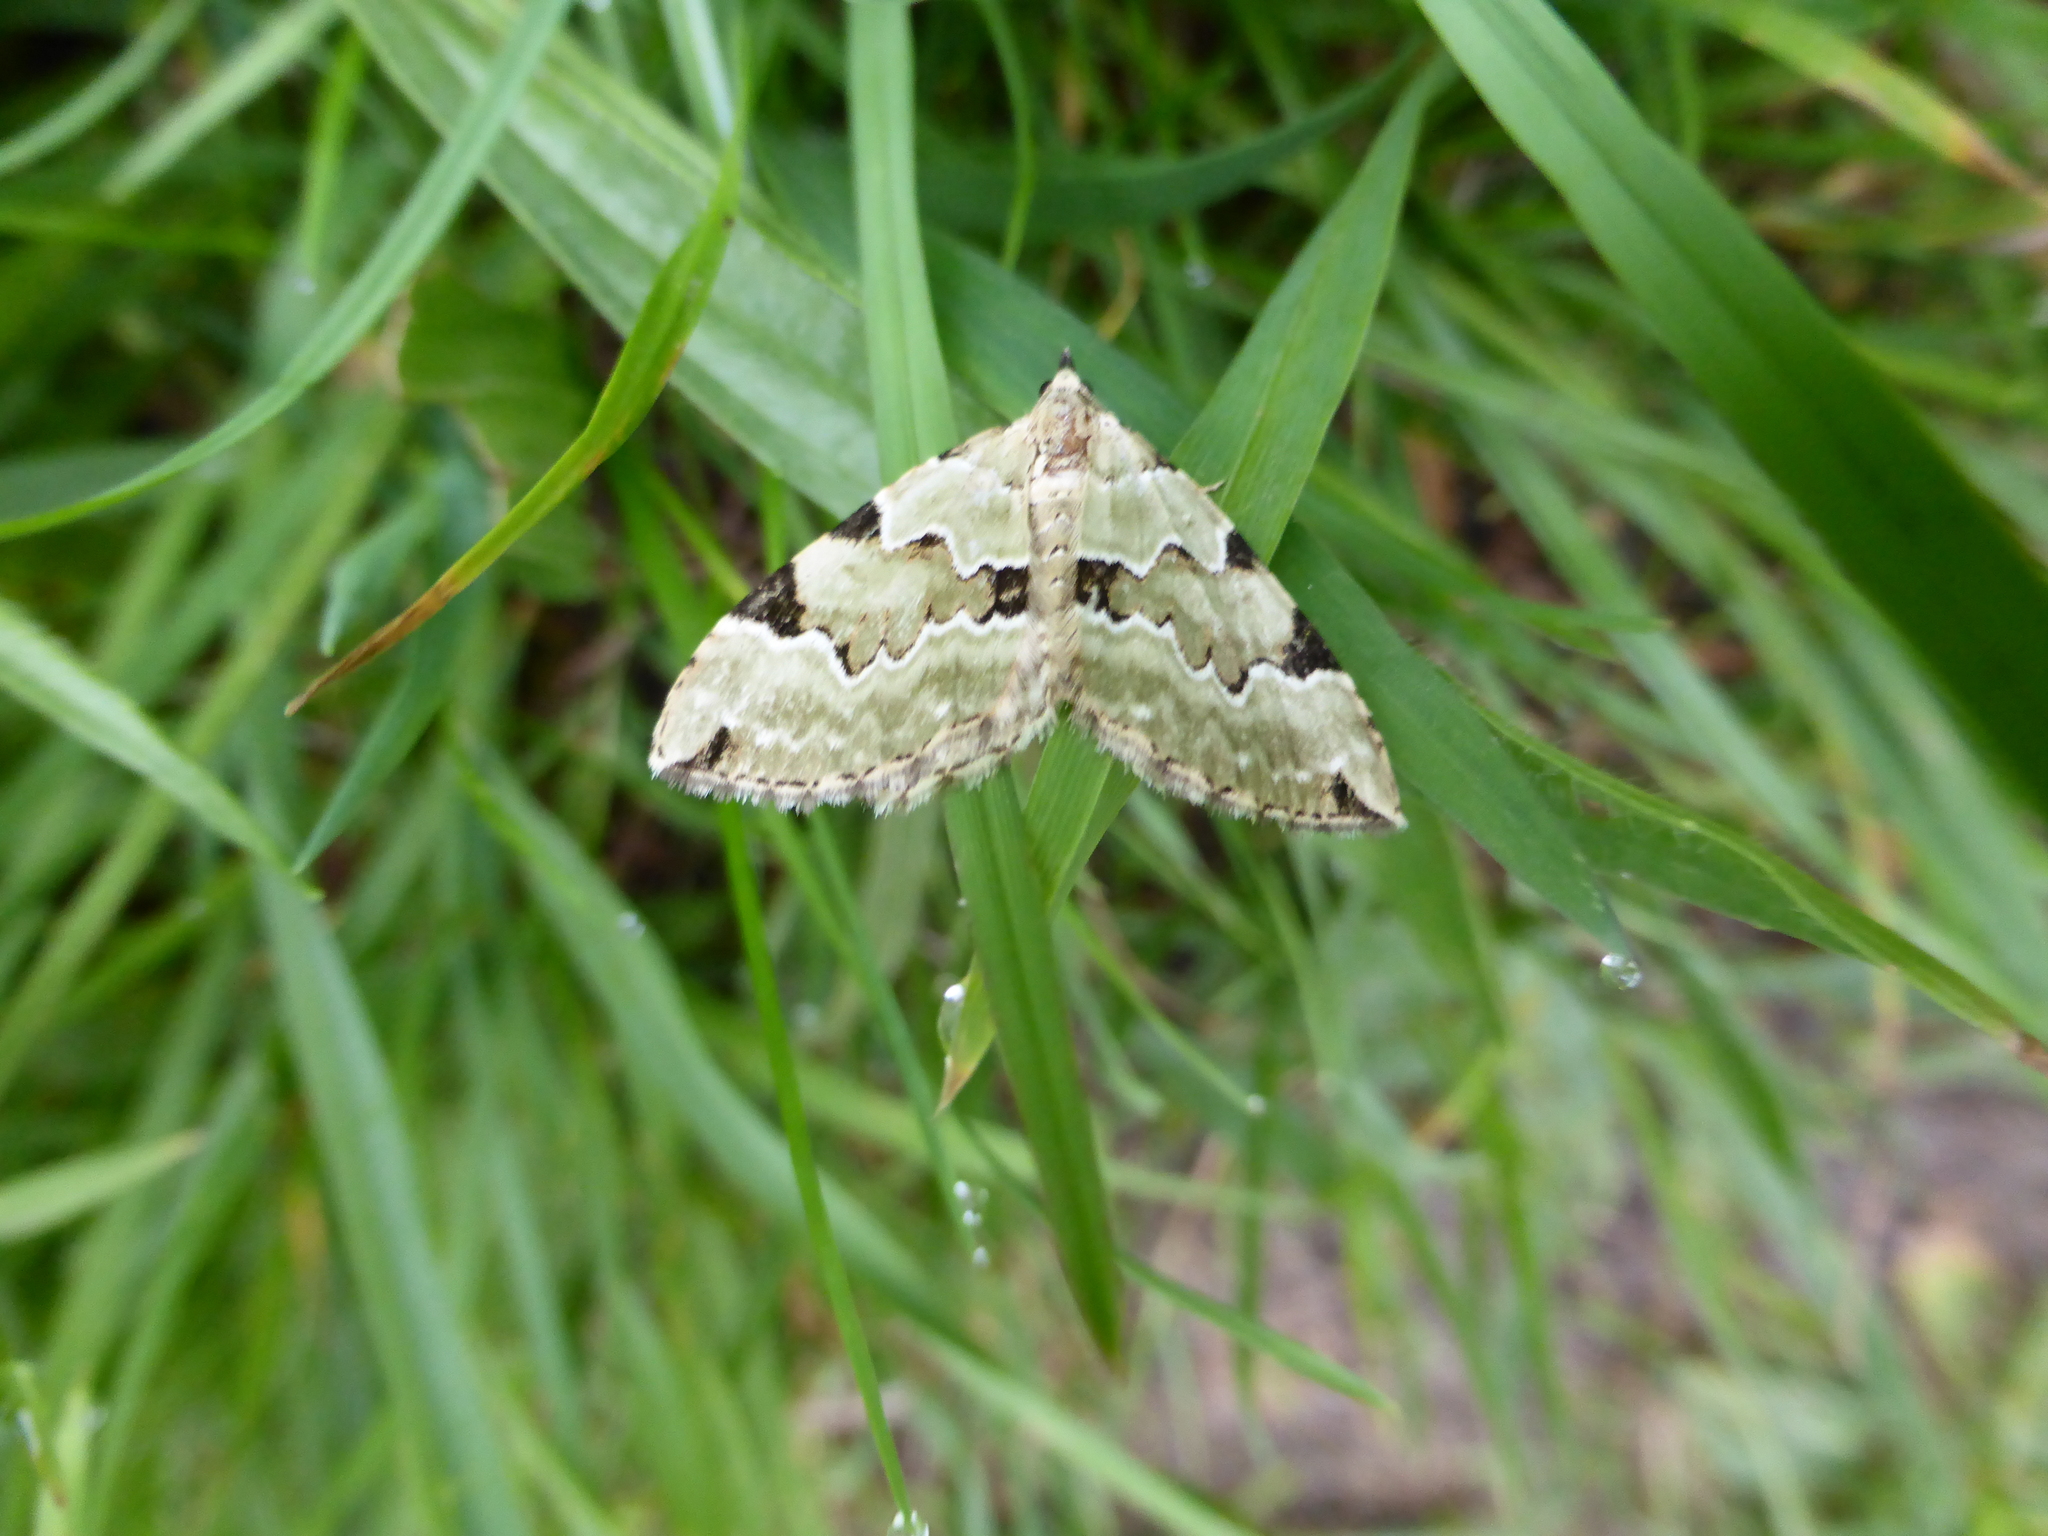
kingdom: Animalia
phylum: Arthropoda
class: Insecta
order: Lepidoptera
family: Geometridae
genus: Colostygia
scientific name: Colostygia pectinataria
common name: Green carpet
